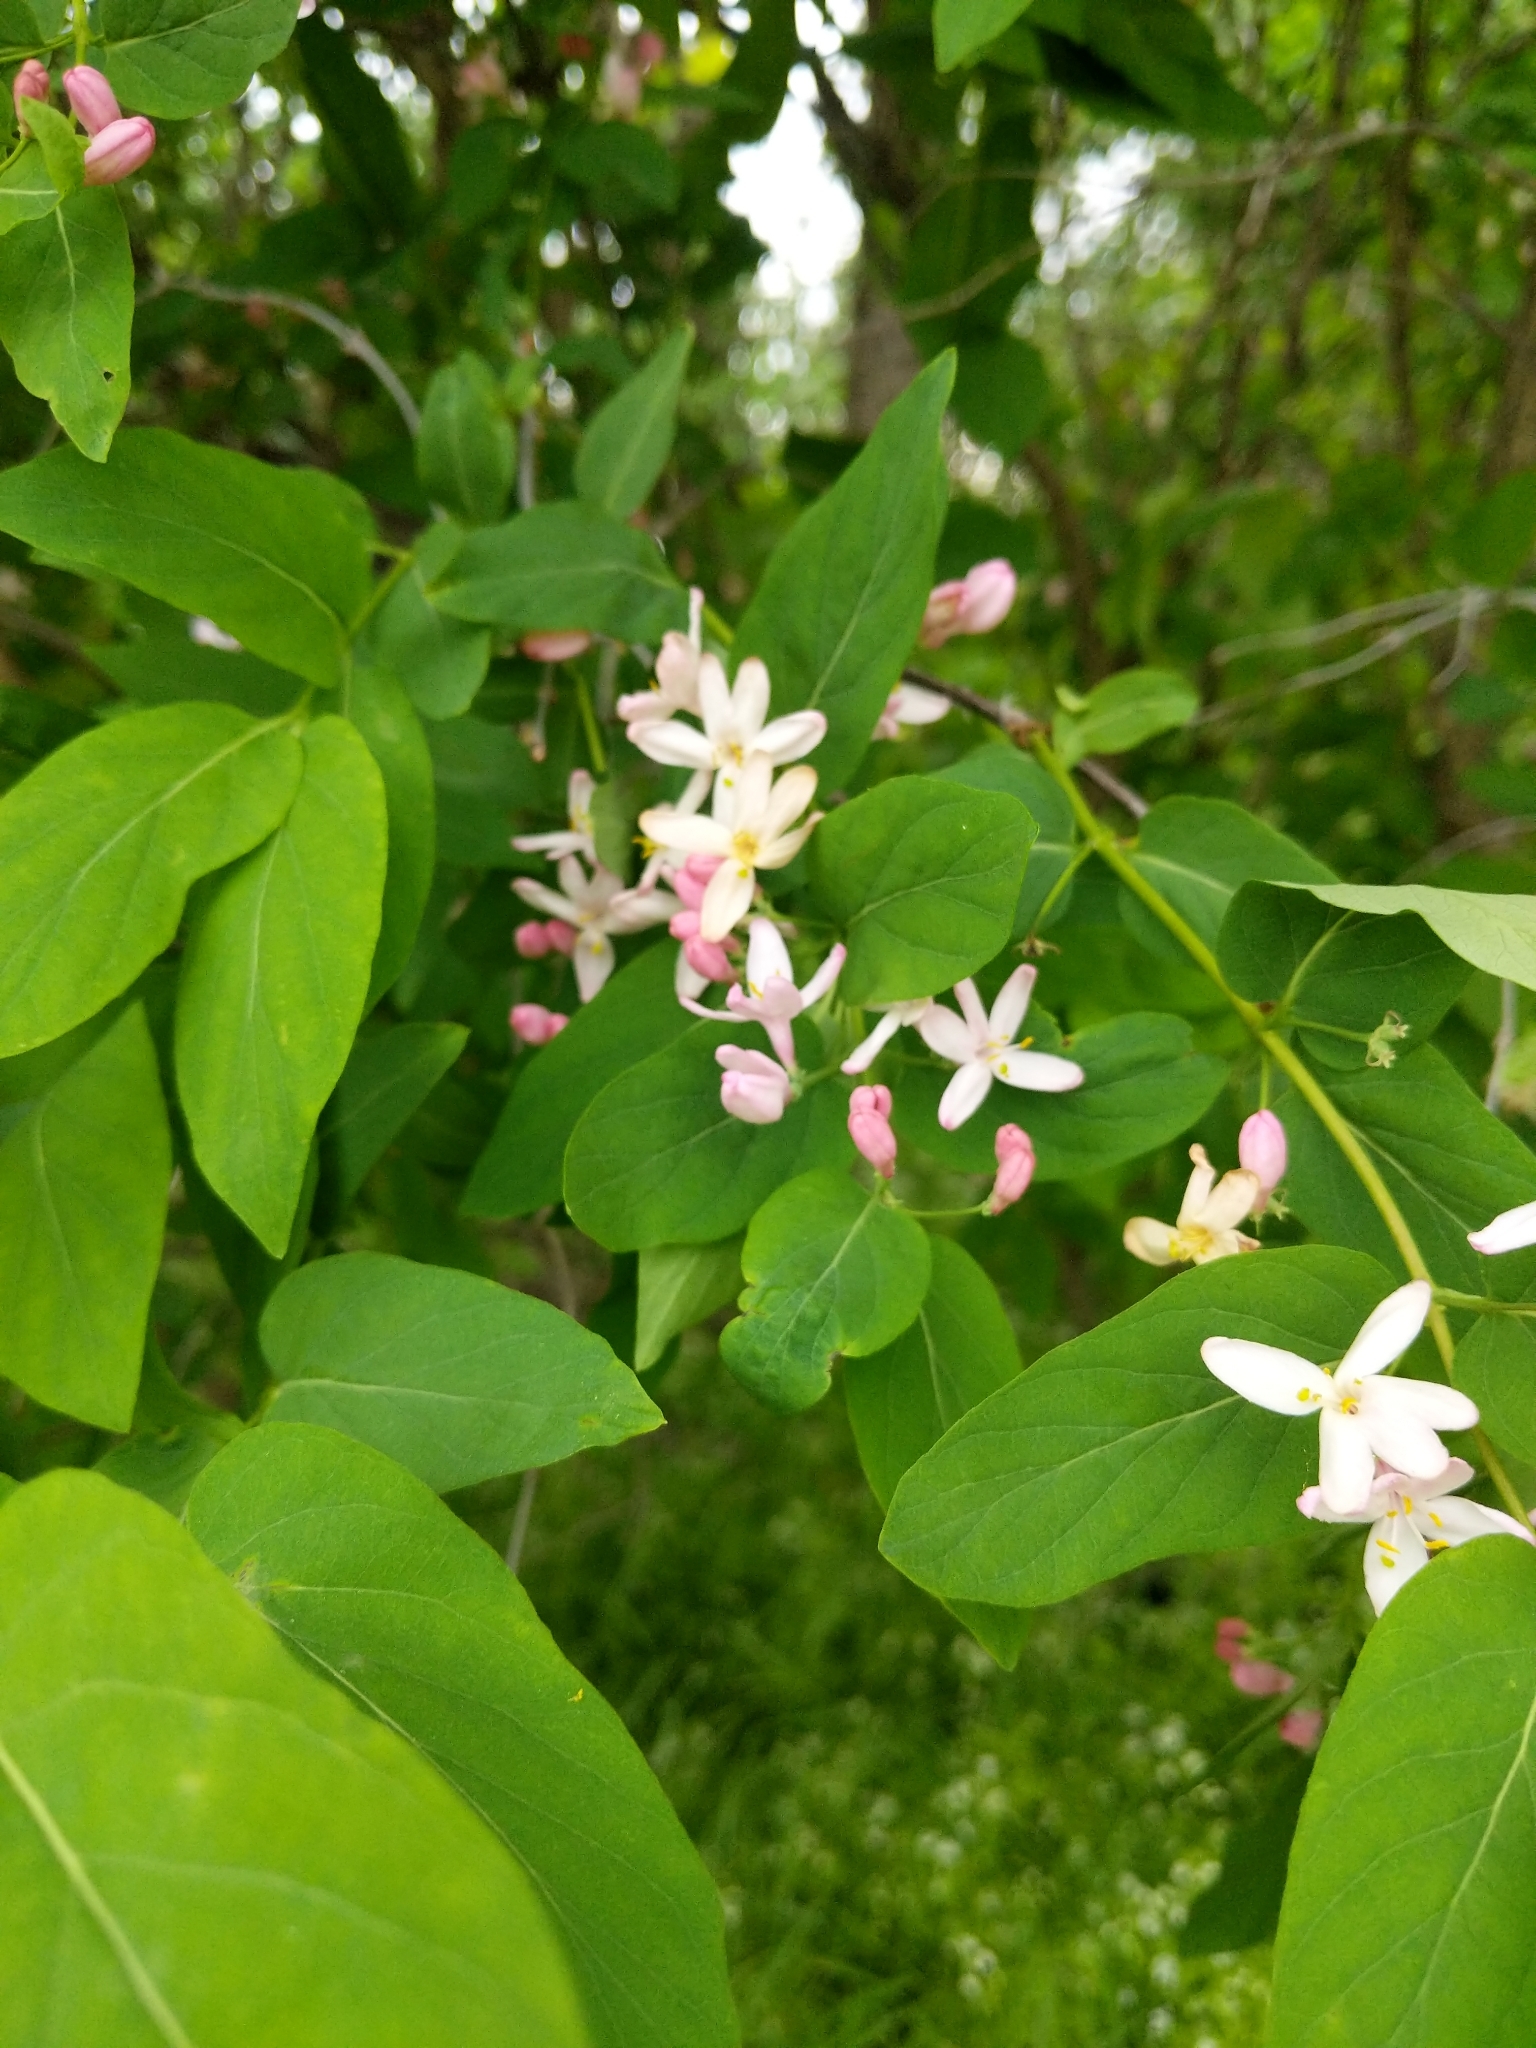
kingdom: Plantae
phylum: Tracheophyta
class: Magnoliopsida
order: Dipsacales
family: Caprifoliaceae
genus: Lonicera
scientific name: Lonicera tatarica
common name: Tatarian honeysuckle
